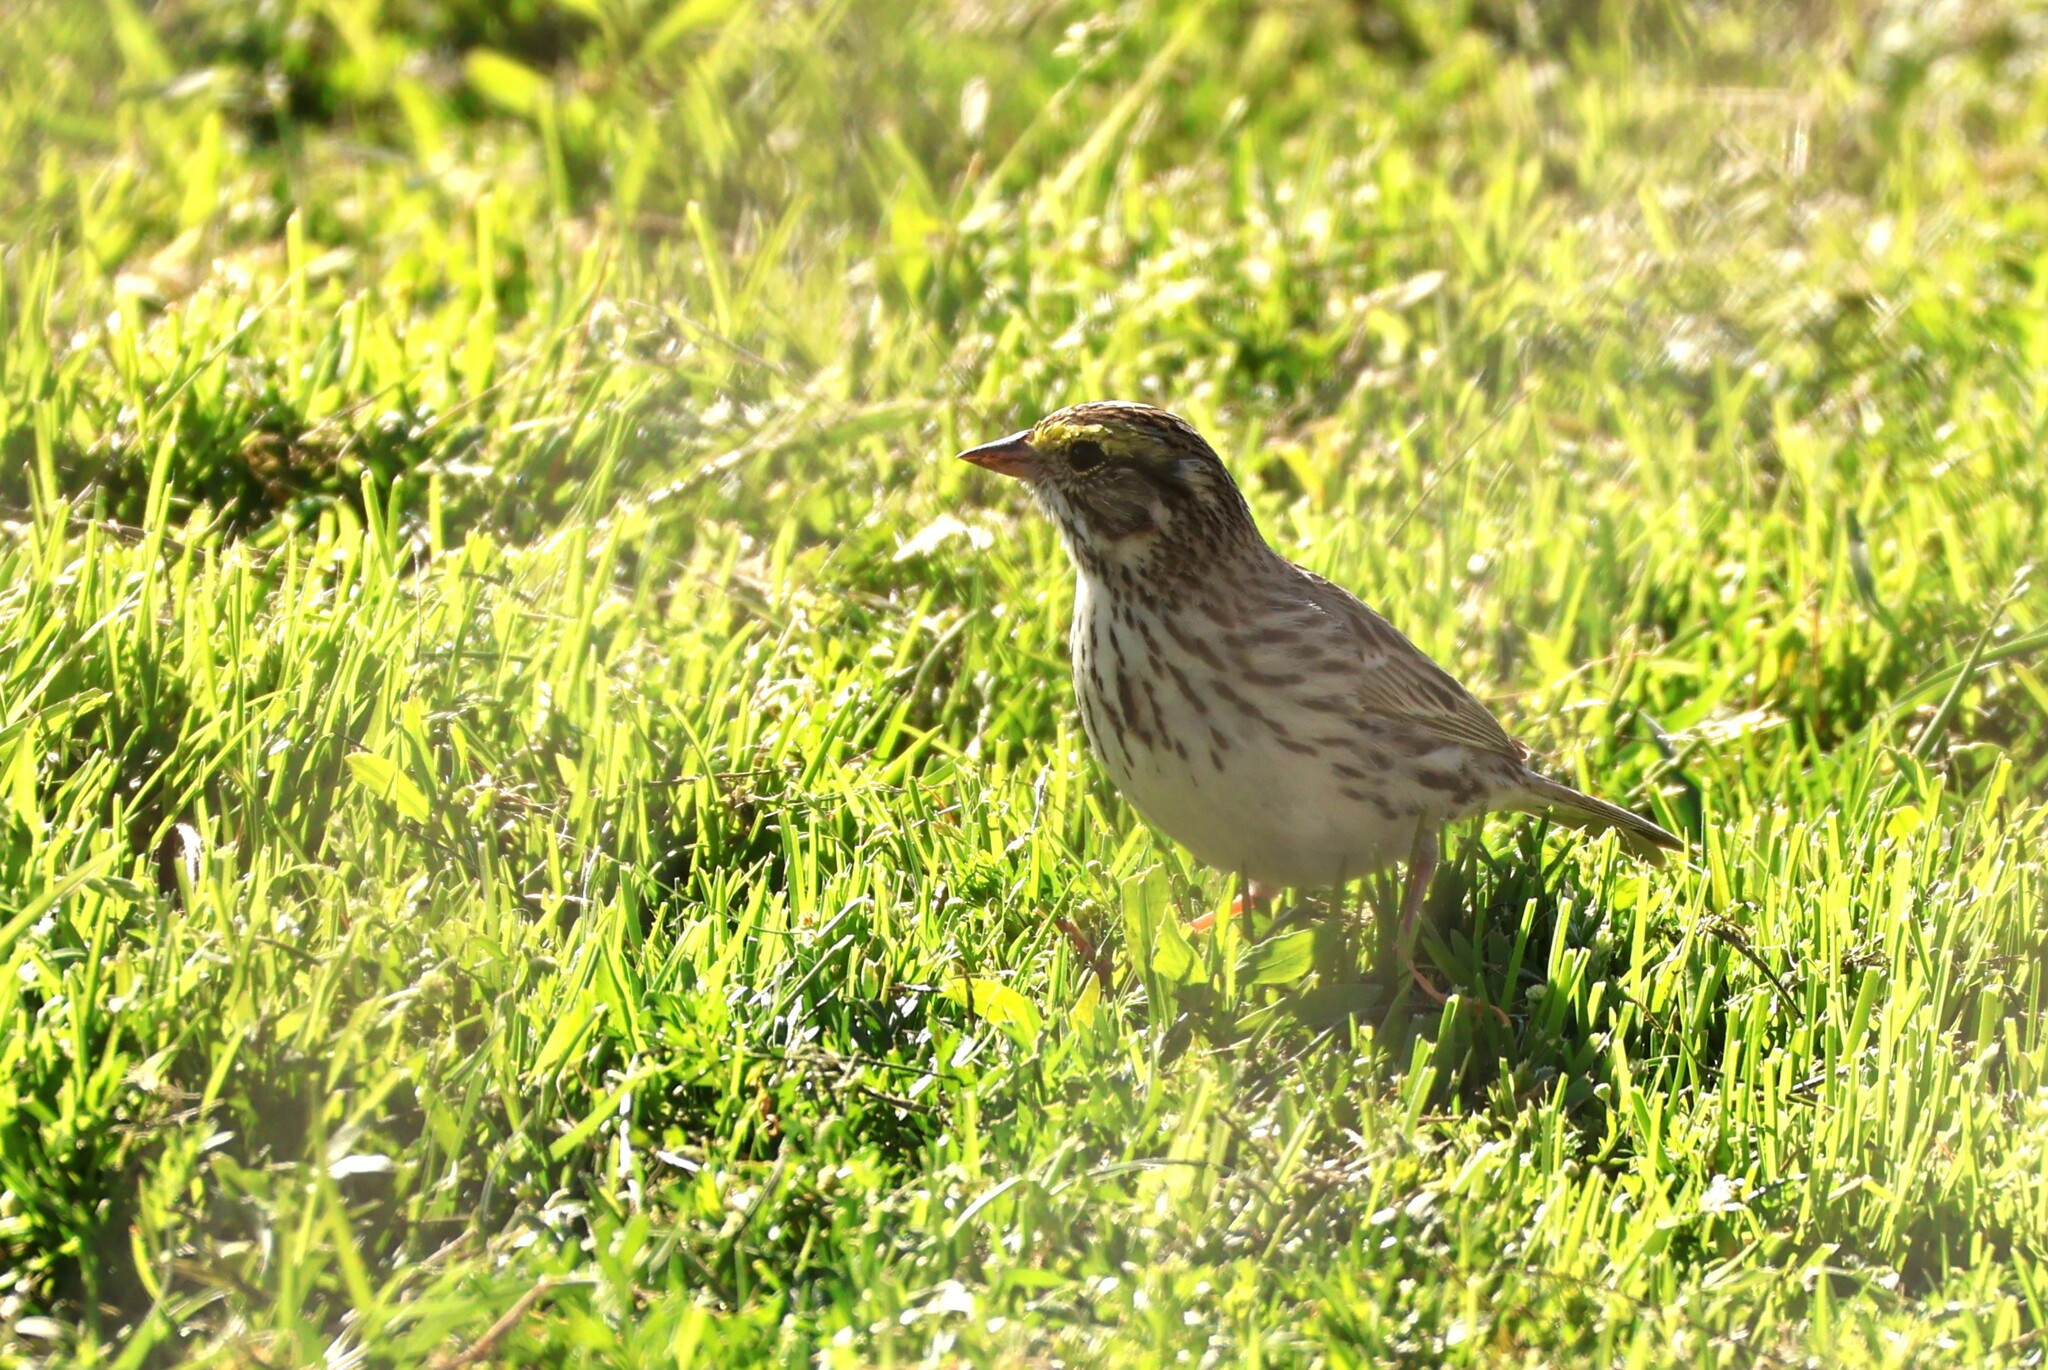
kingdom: Animalia
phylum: Chordata
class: Aves
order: Passeriformes
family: Passerellidae
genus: Passerculus
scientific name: Passerculus sandwichensis
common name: Savannah sparrow
